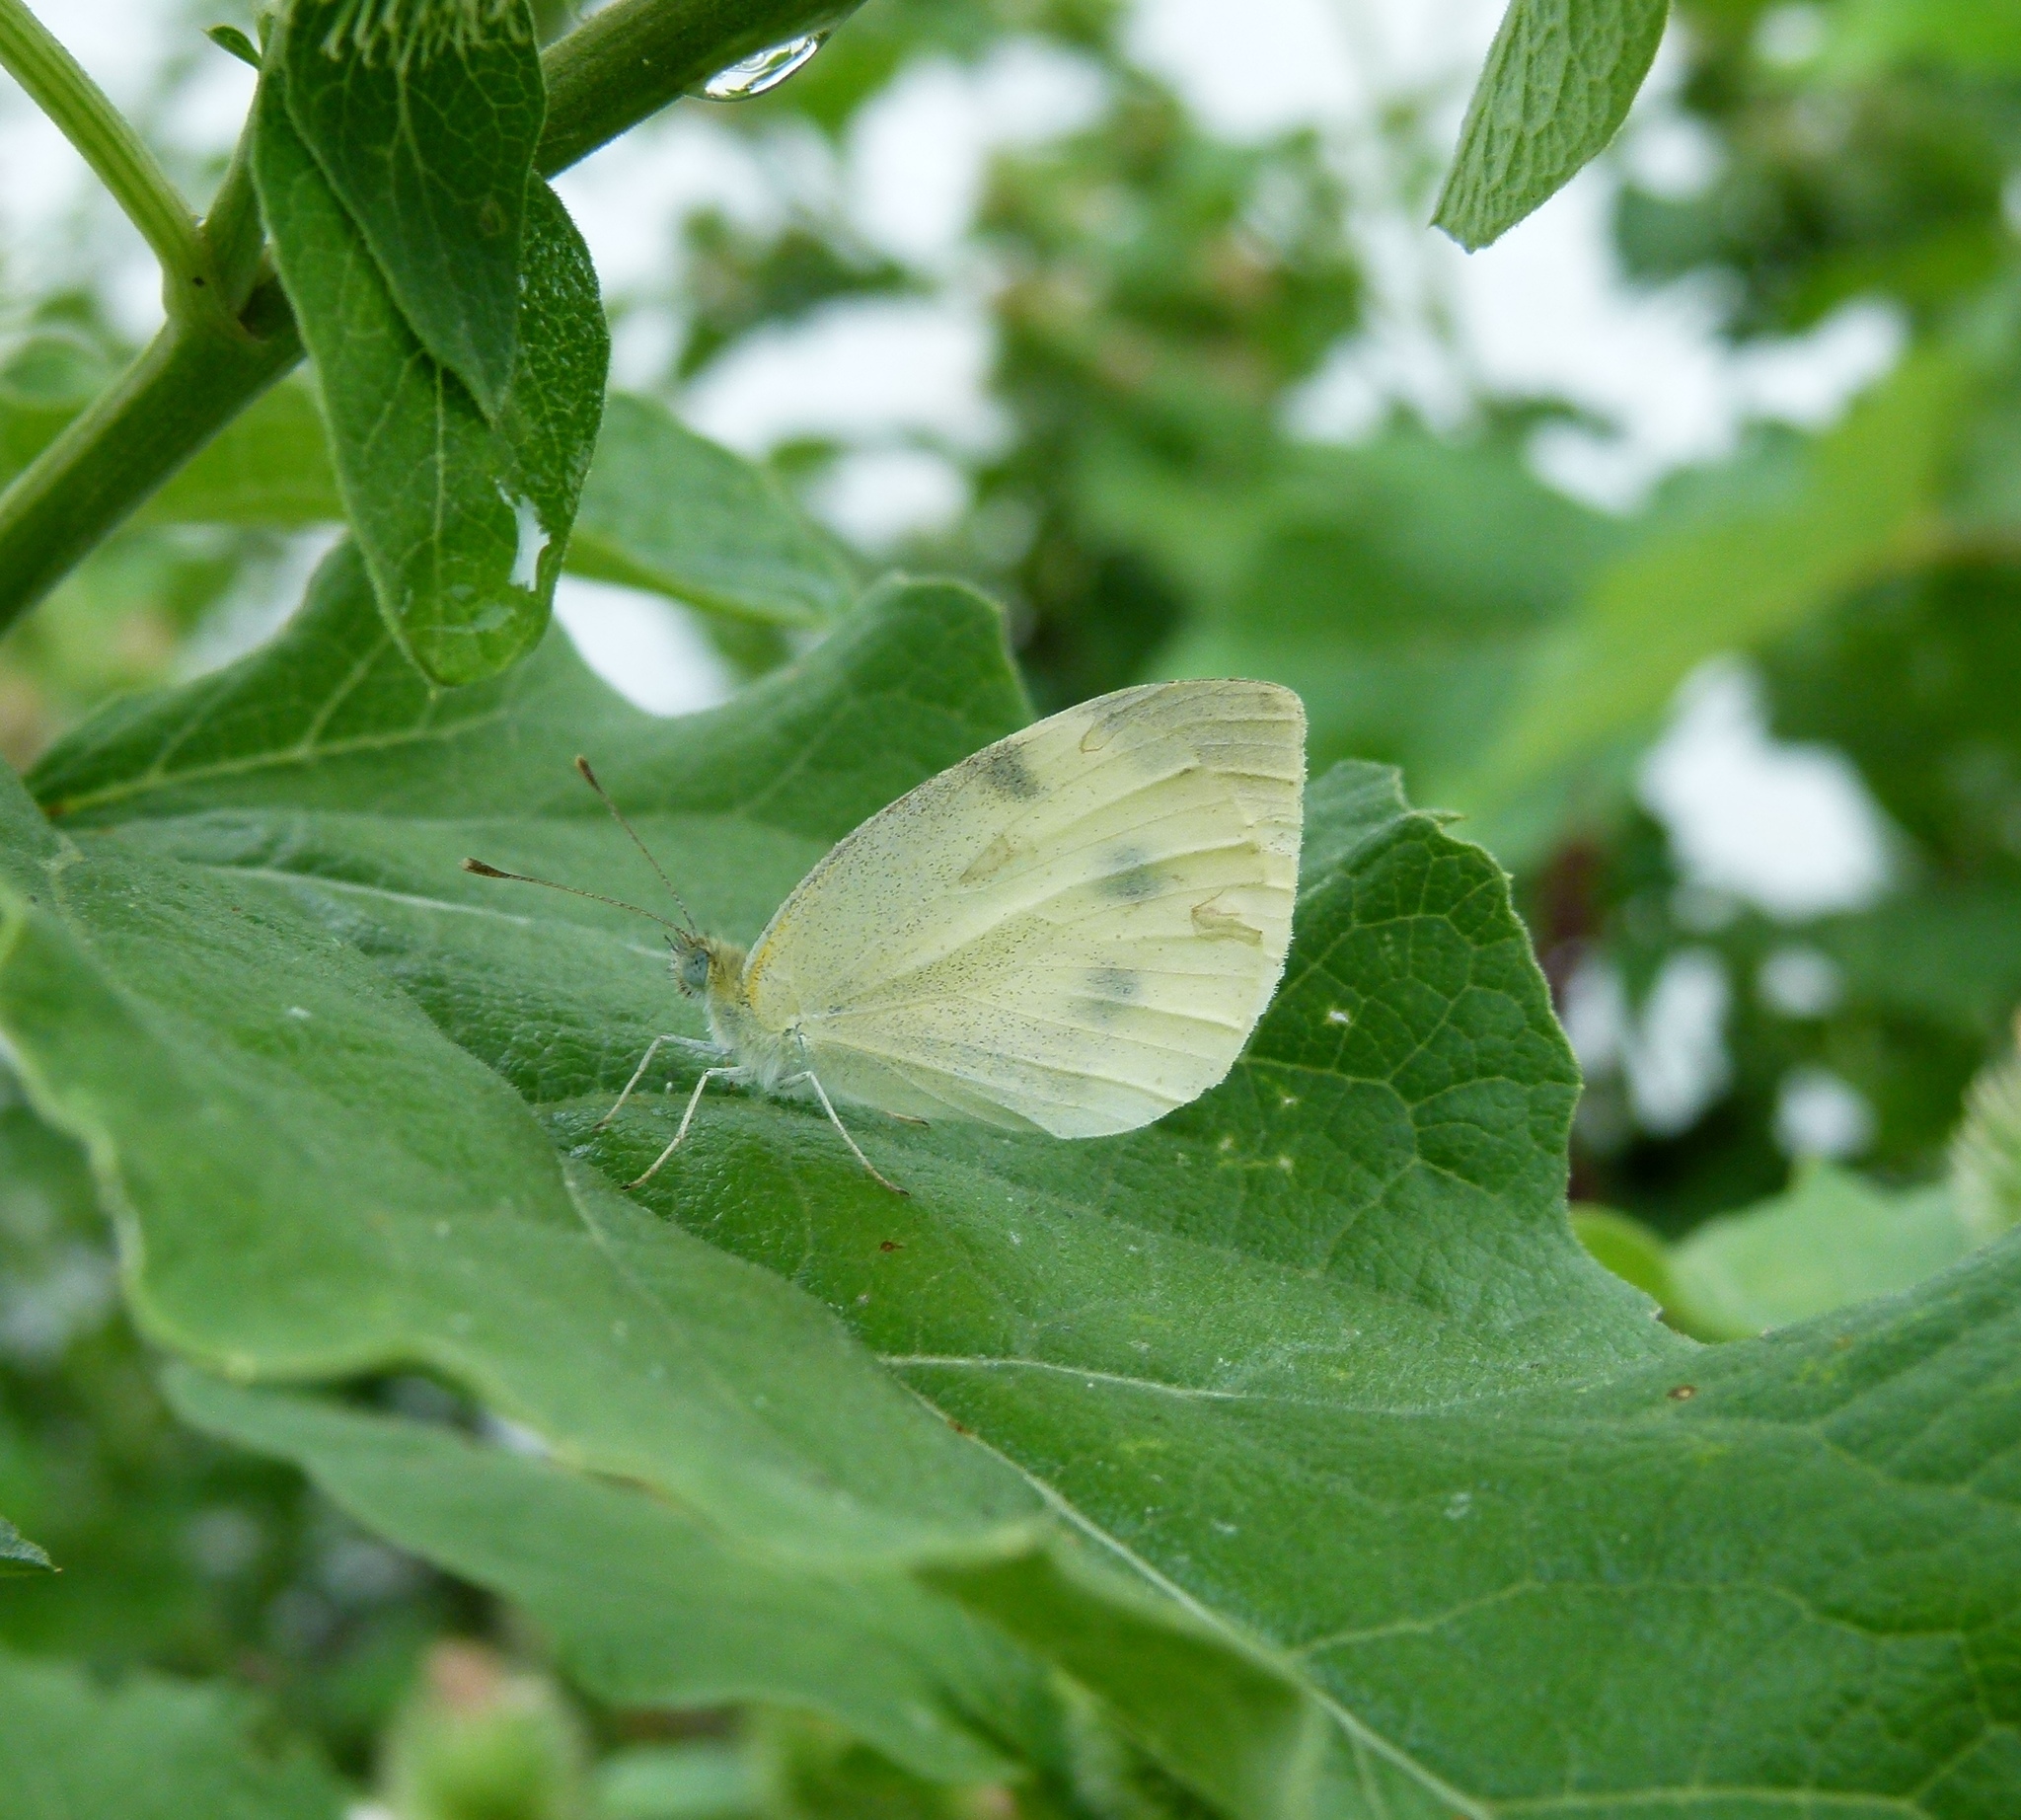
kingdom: Animalia
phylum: Arthropoda
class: Insecta
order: Lepidoptera
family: Pieridae
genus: Pieris
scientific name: Pieris rapae
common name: Small white
